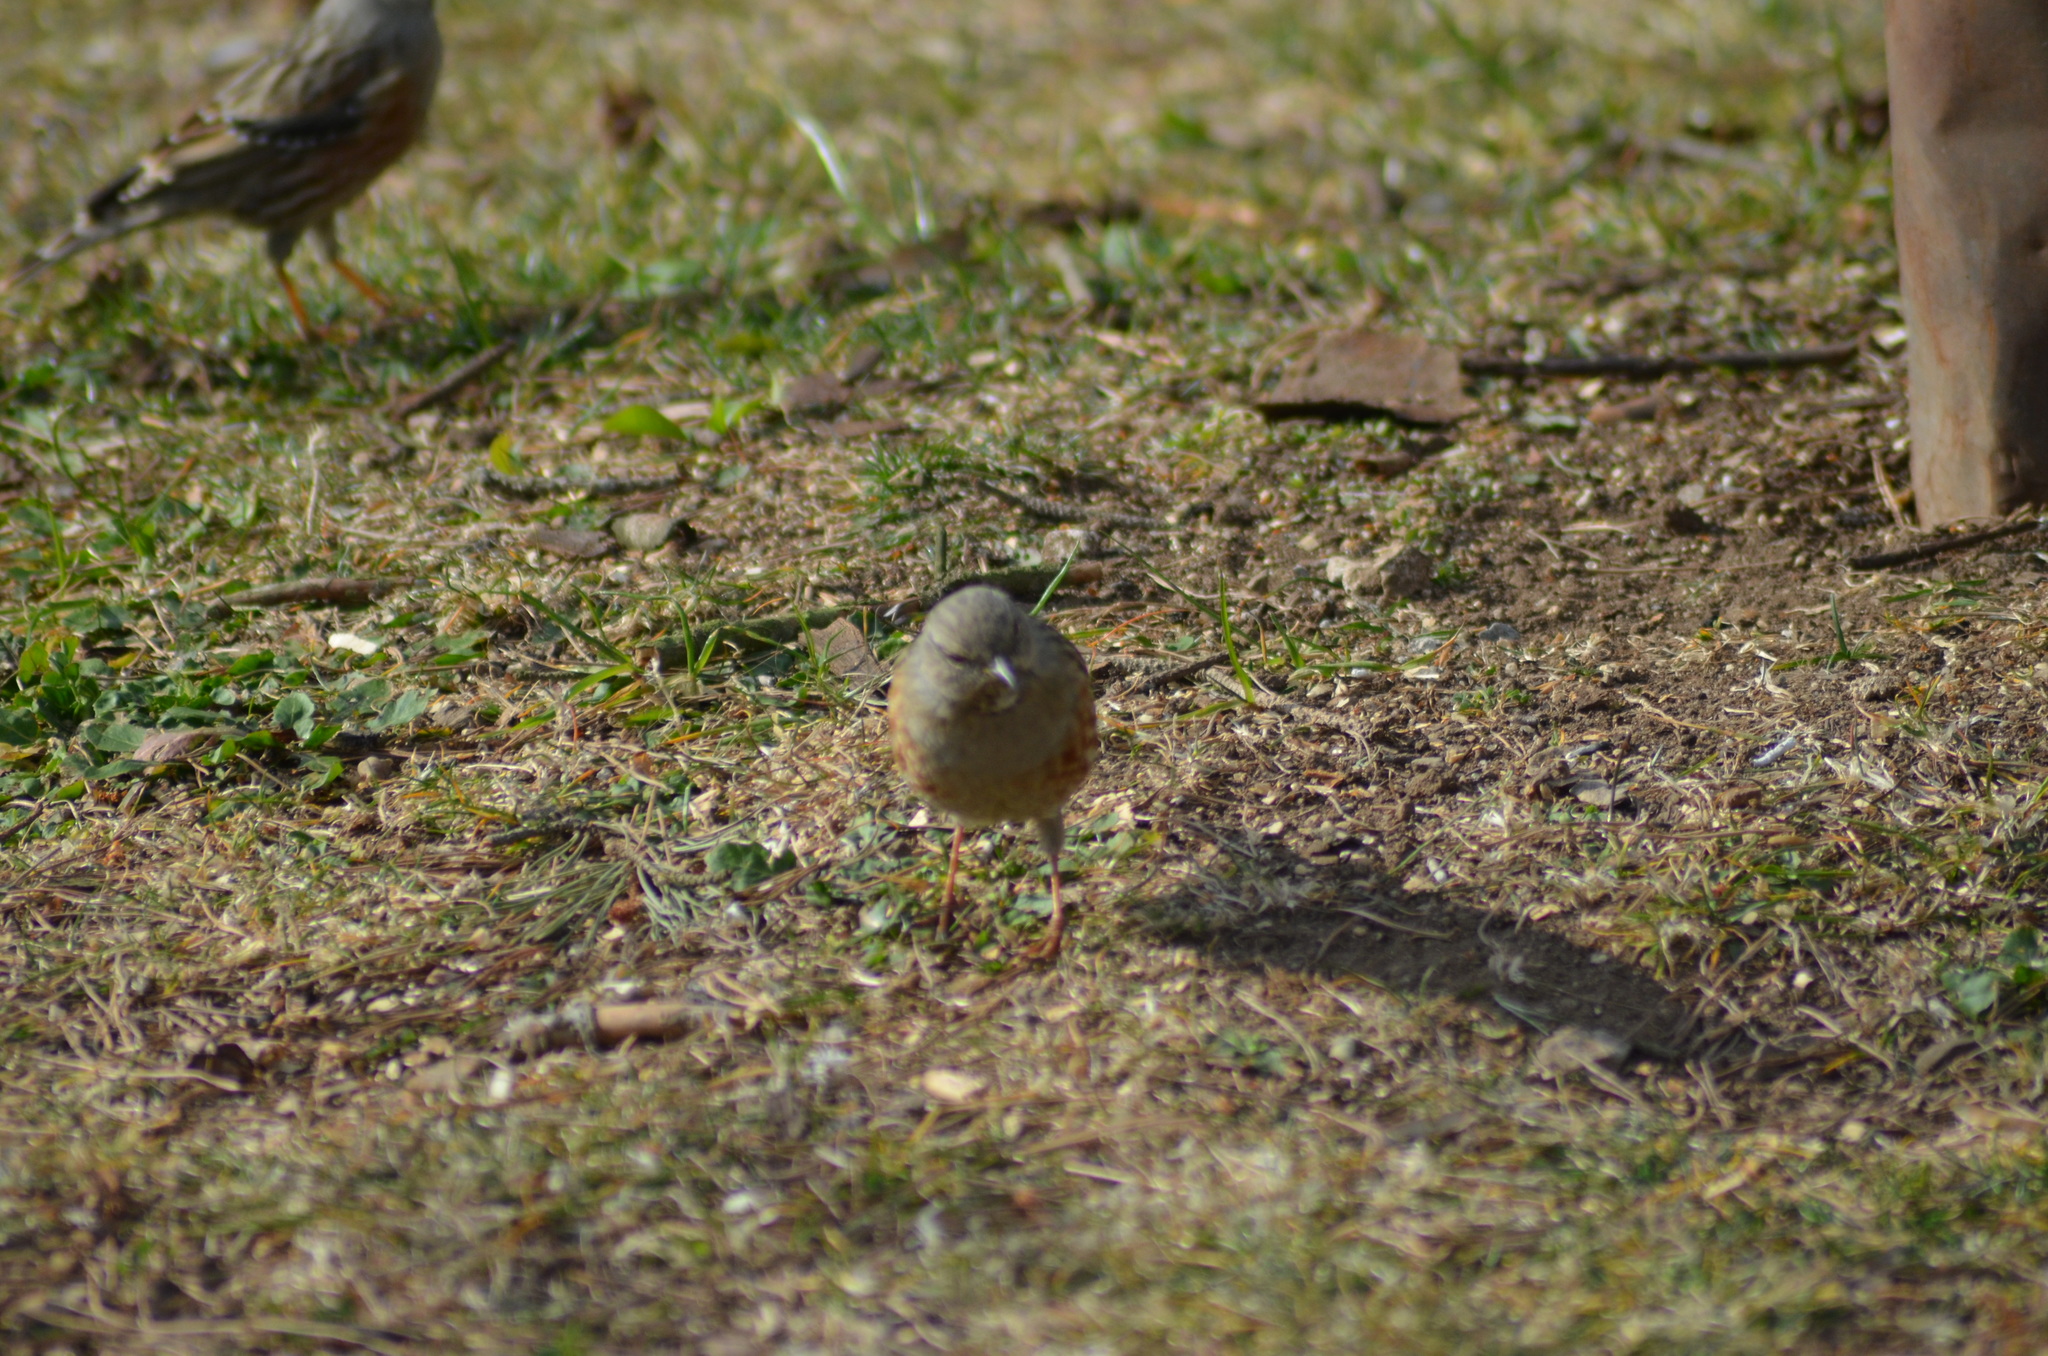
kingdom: Animalia
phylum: Chordata
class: Aves
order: Passeriformes
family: Prunellidae
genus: Prunella
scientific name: Prunella collaris
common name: Alpine accentor
